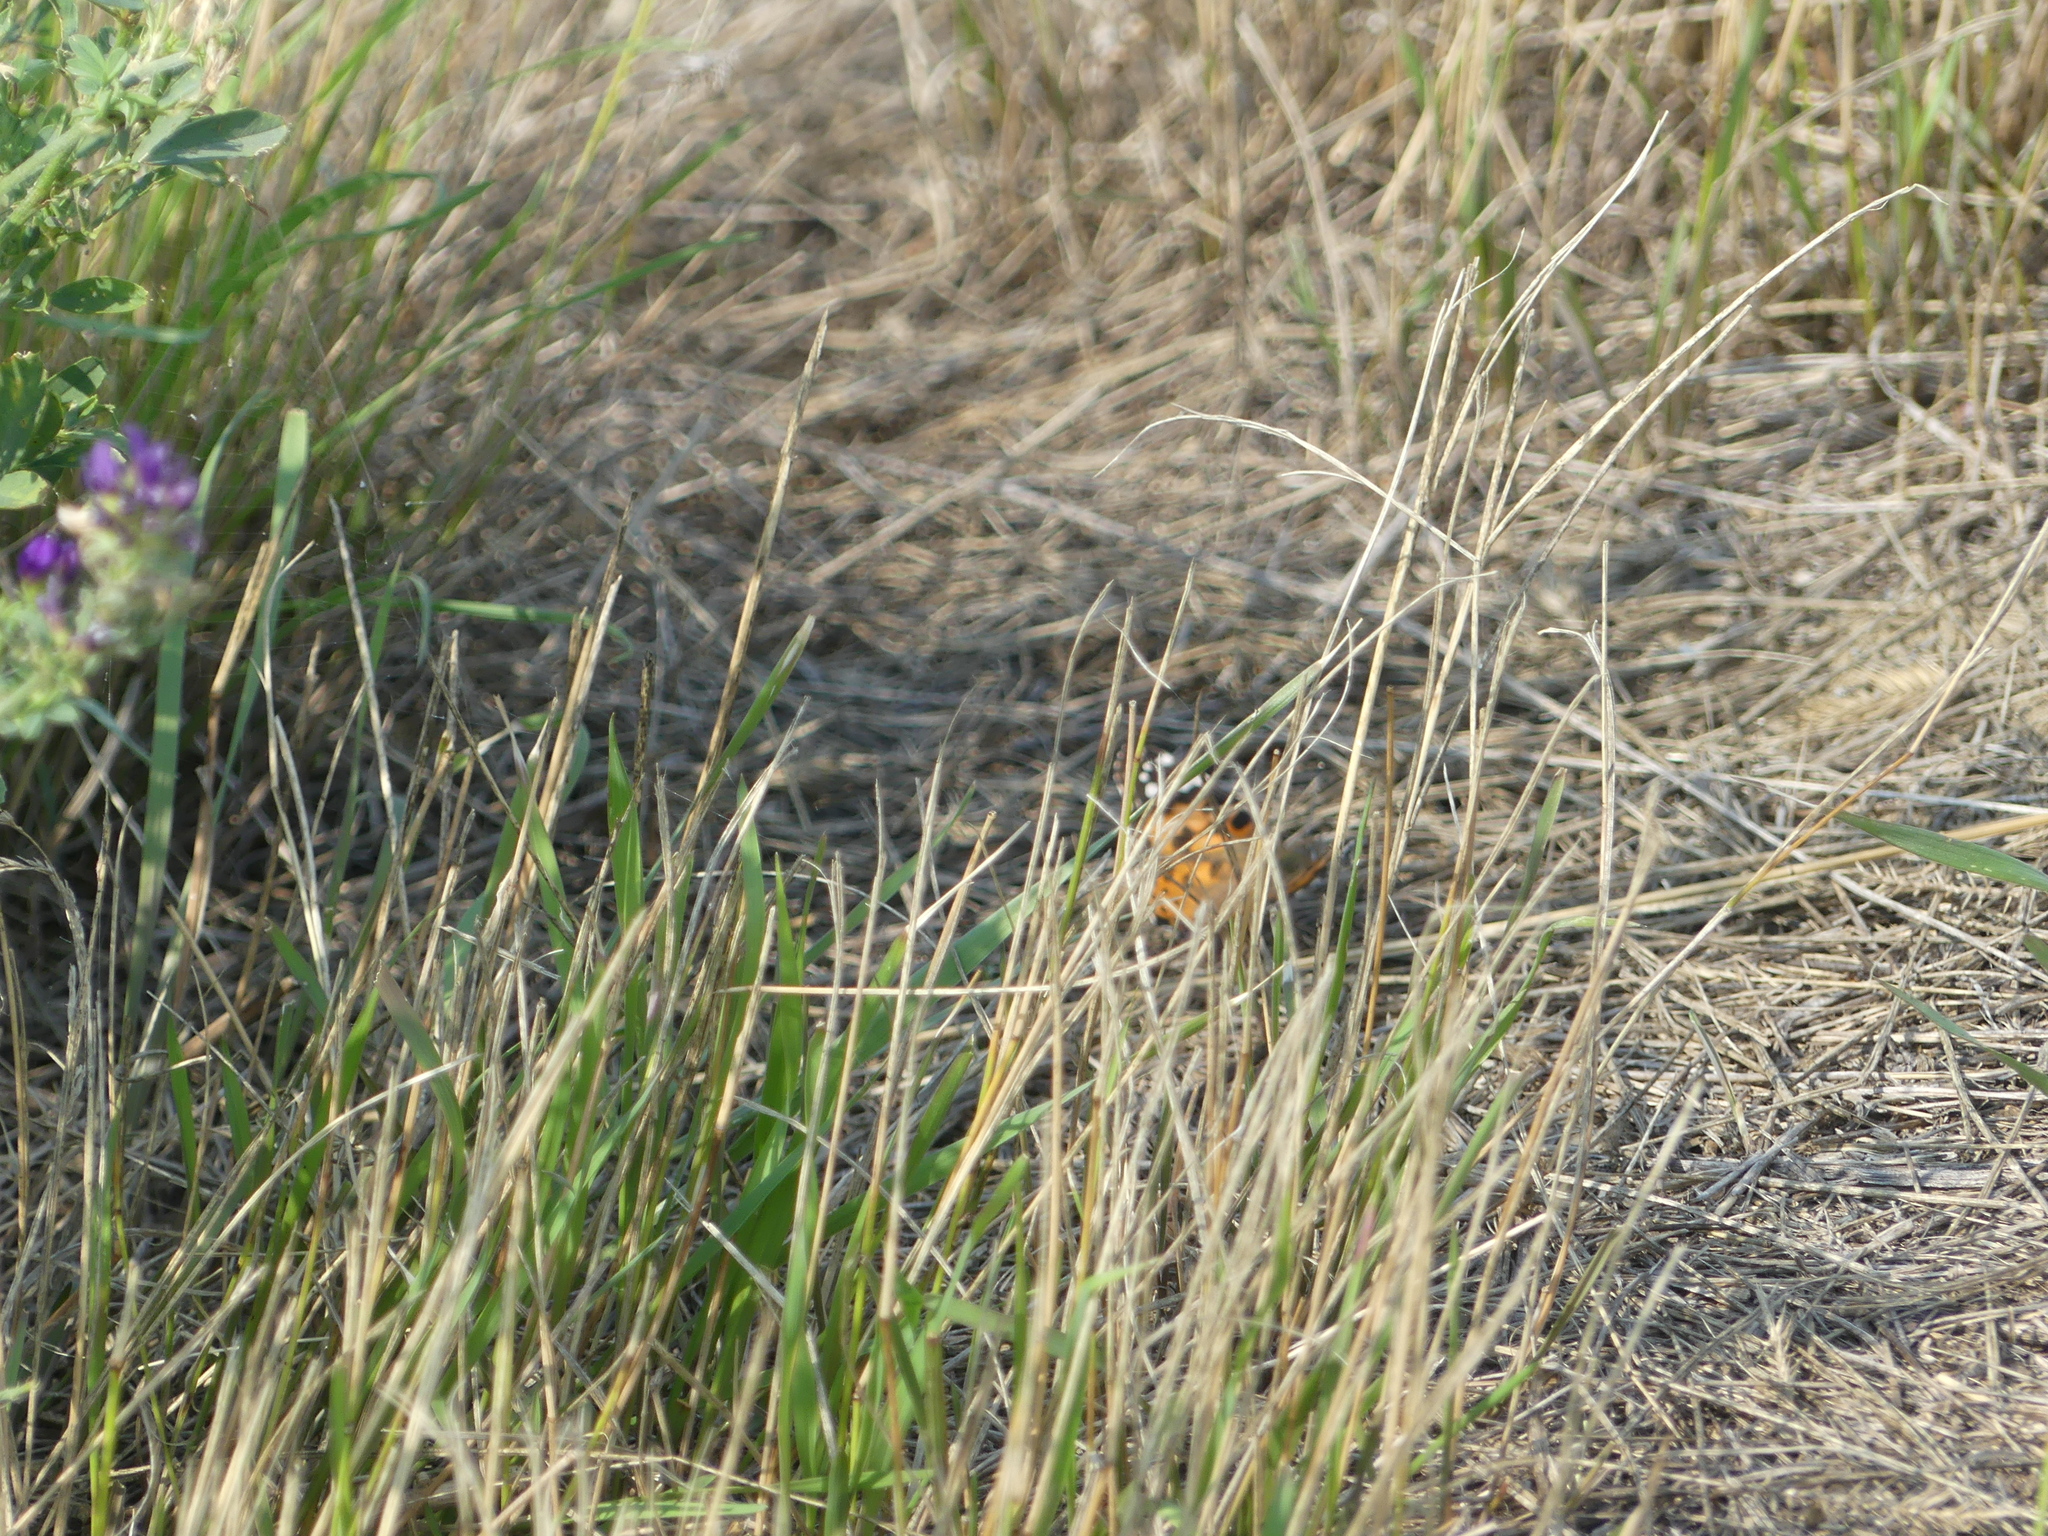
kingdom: Animalia
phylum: Arthropoda
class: Insecta
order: Lepidoptera
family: Nymphalidae
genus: Vanessa
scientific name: Vanessa cardui
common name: Painted lady
